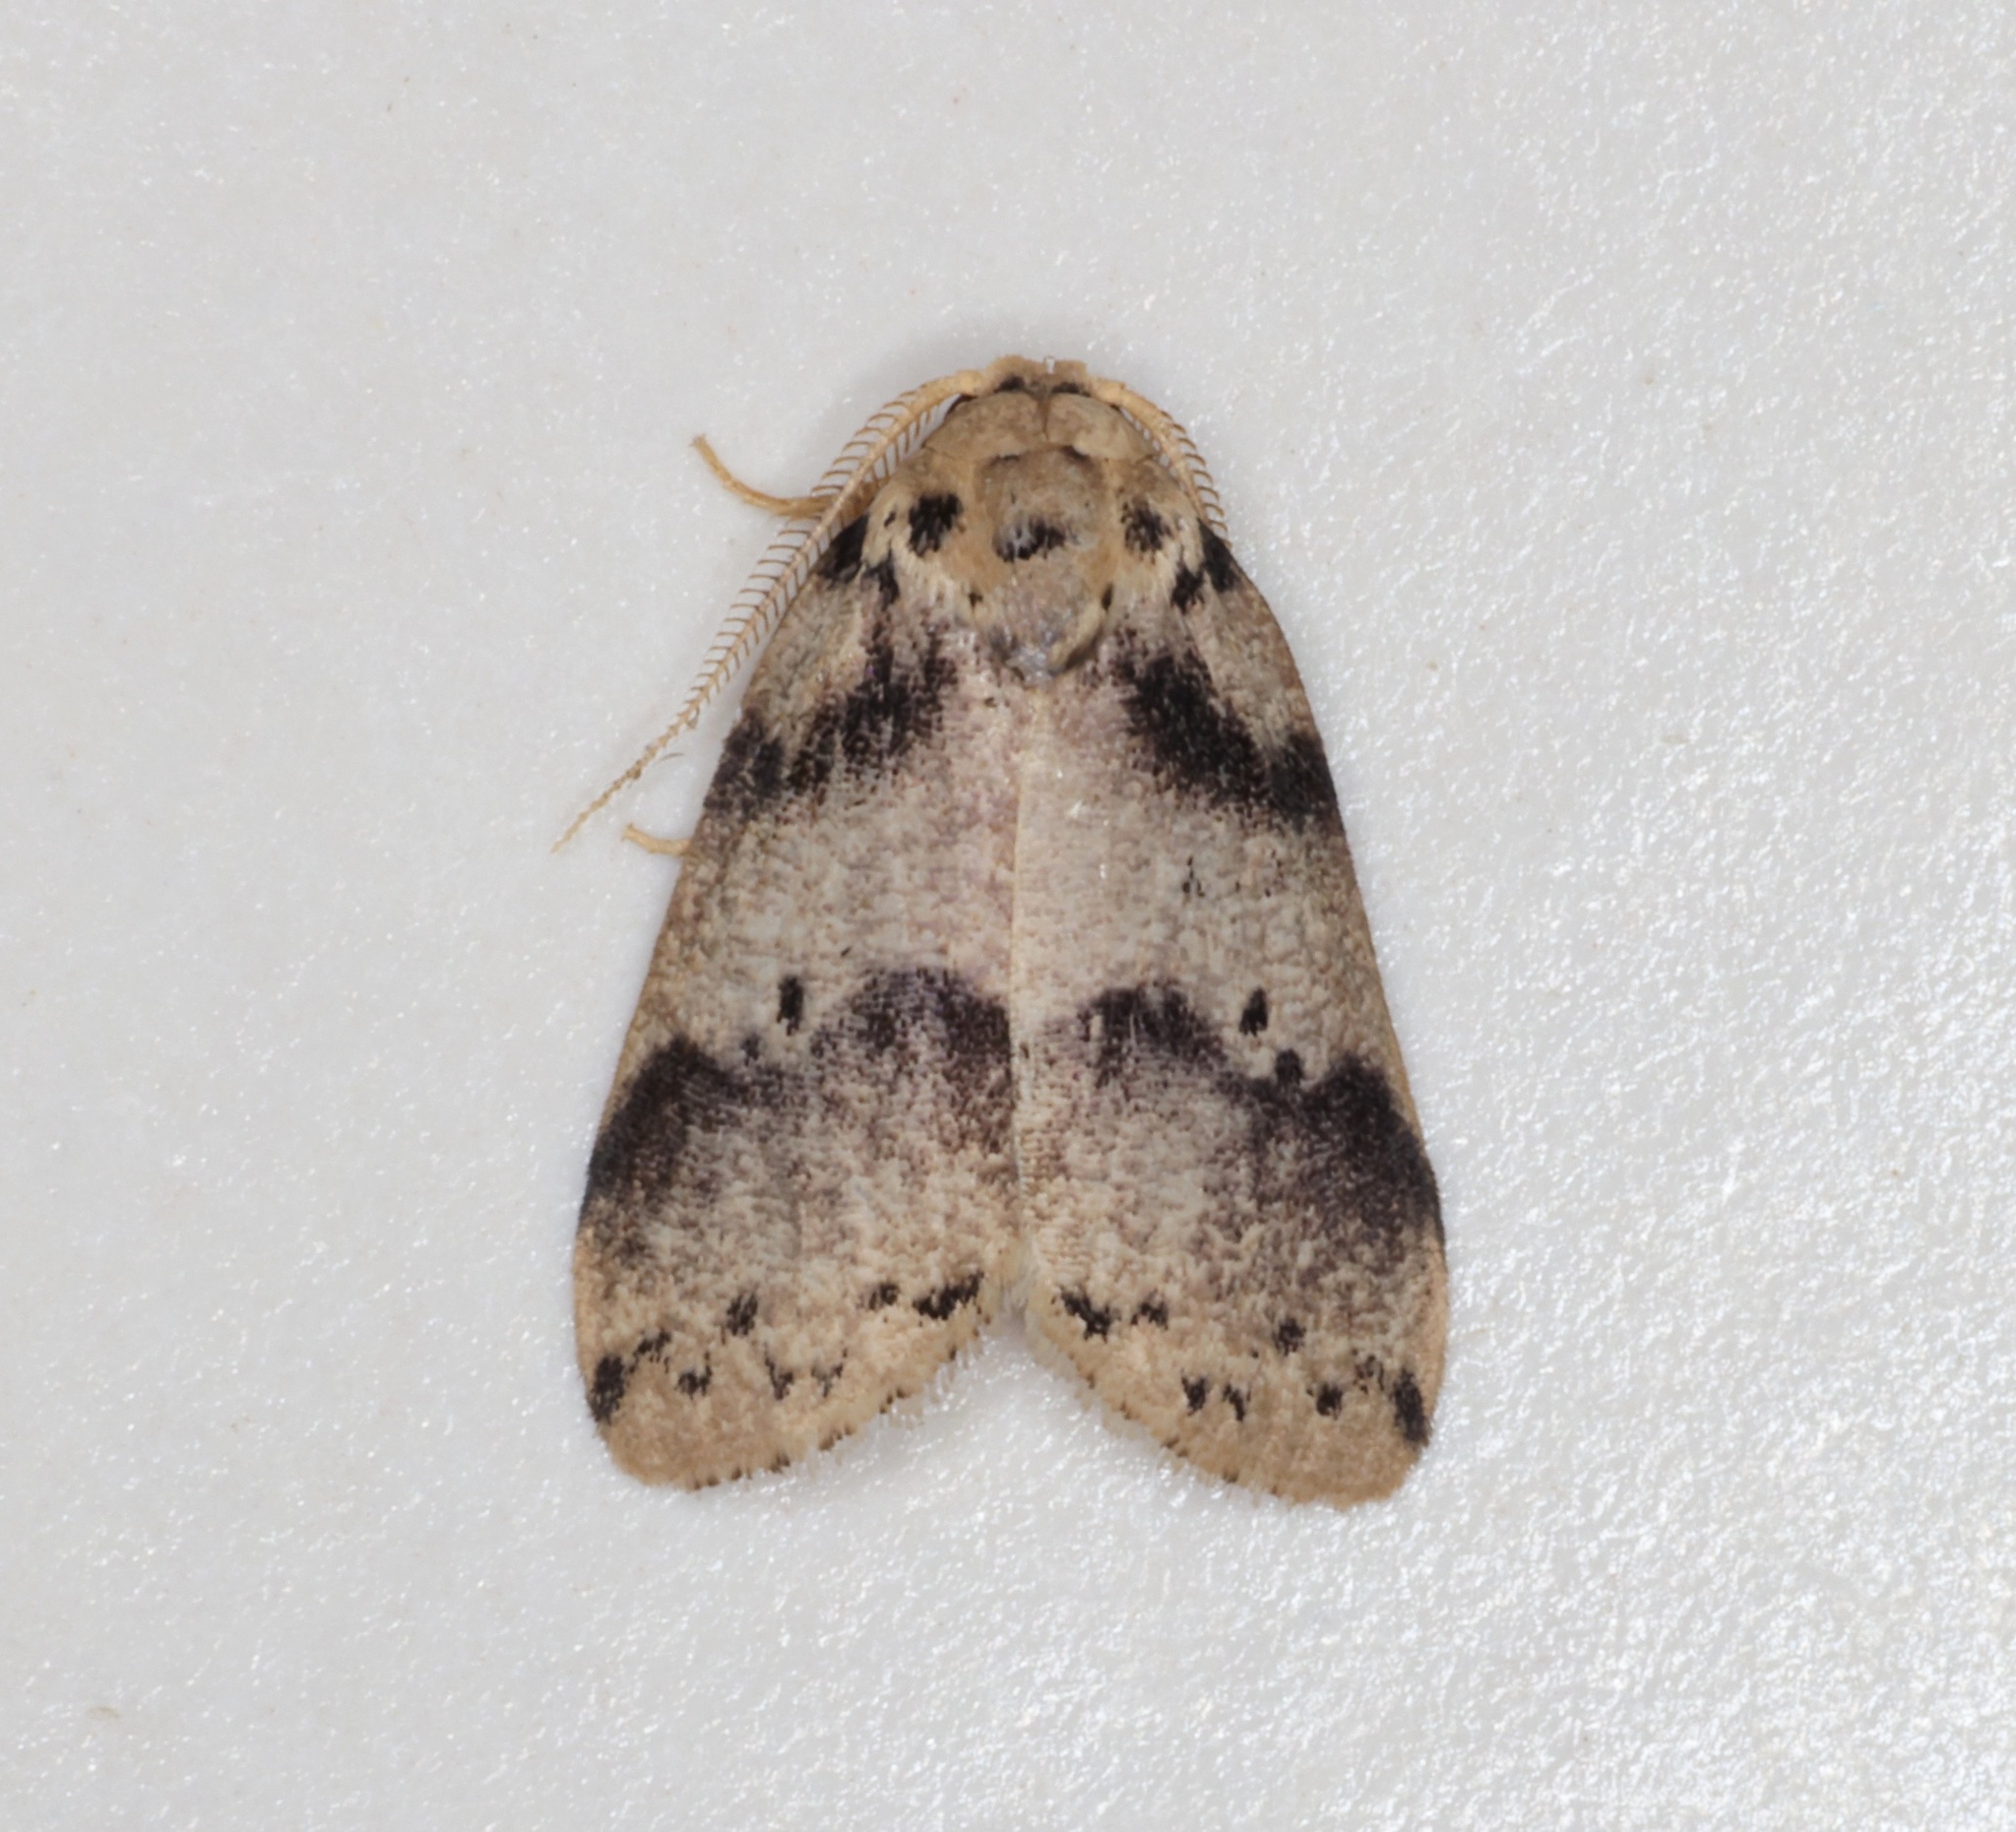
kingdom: Animalia
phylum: Arthropoda
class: Insecta
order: Lepidoptera
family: Erebidae
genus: Eugoa
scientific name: Eugoa basipuncta
